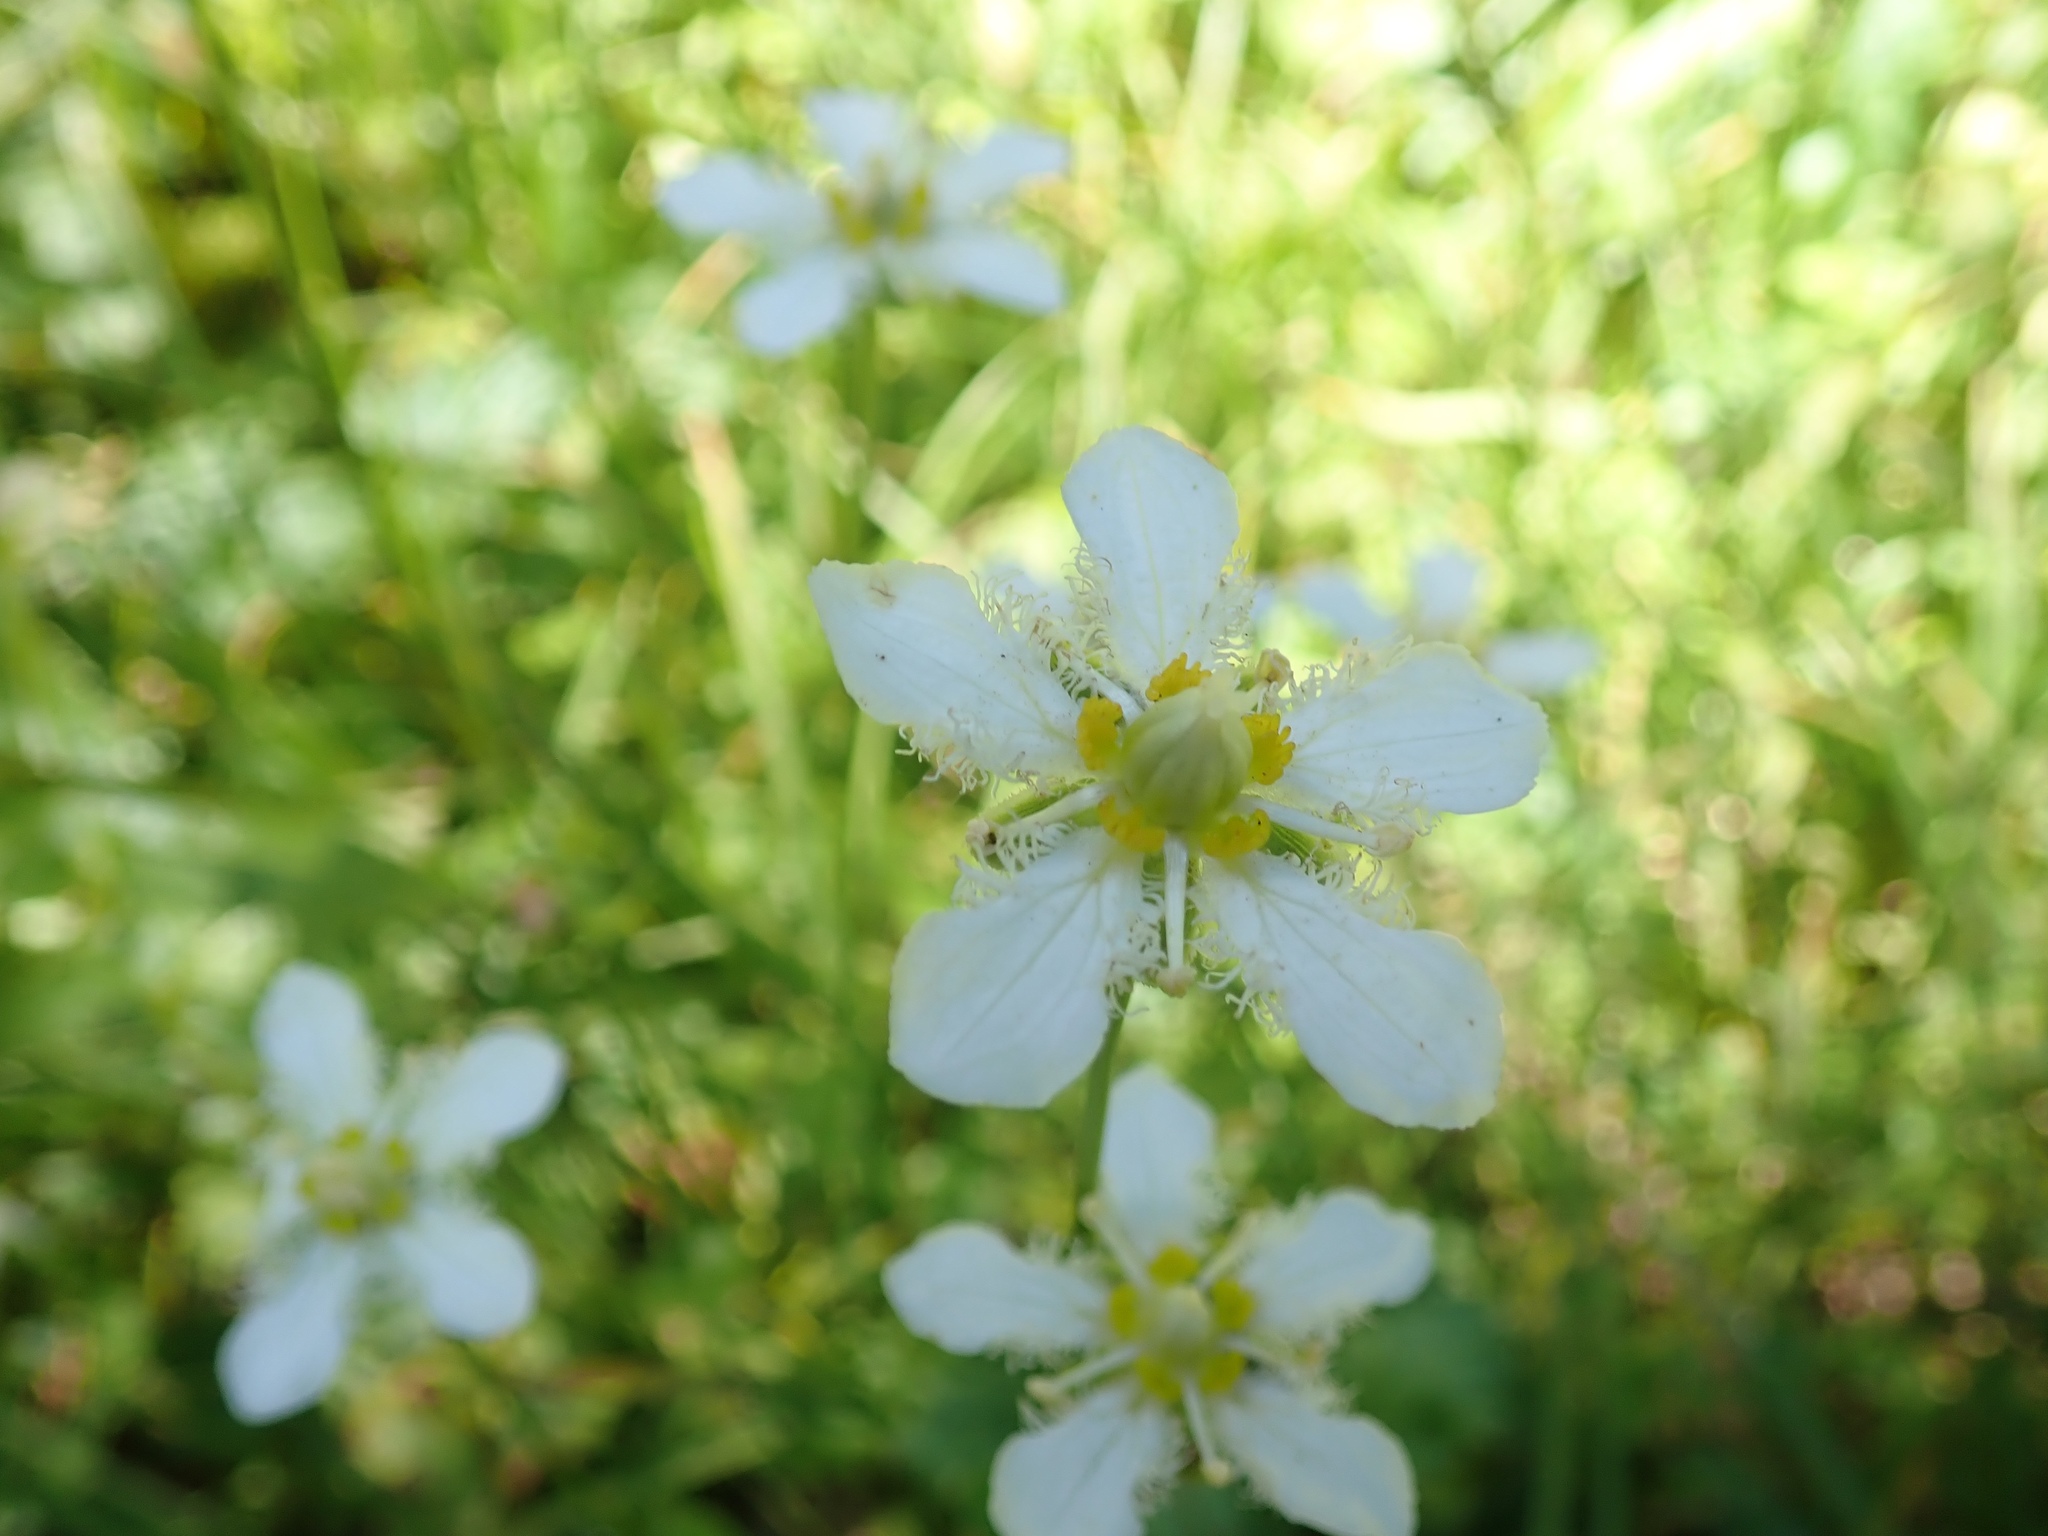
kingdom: Plantae
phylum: Tracheophyta
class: Magnoliopsida
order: Celastrales
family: Parnassiaceae
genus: Parnassia
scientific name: Parnassia fimbriata
